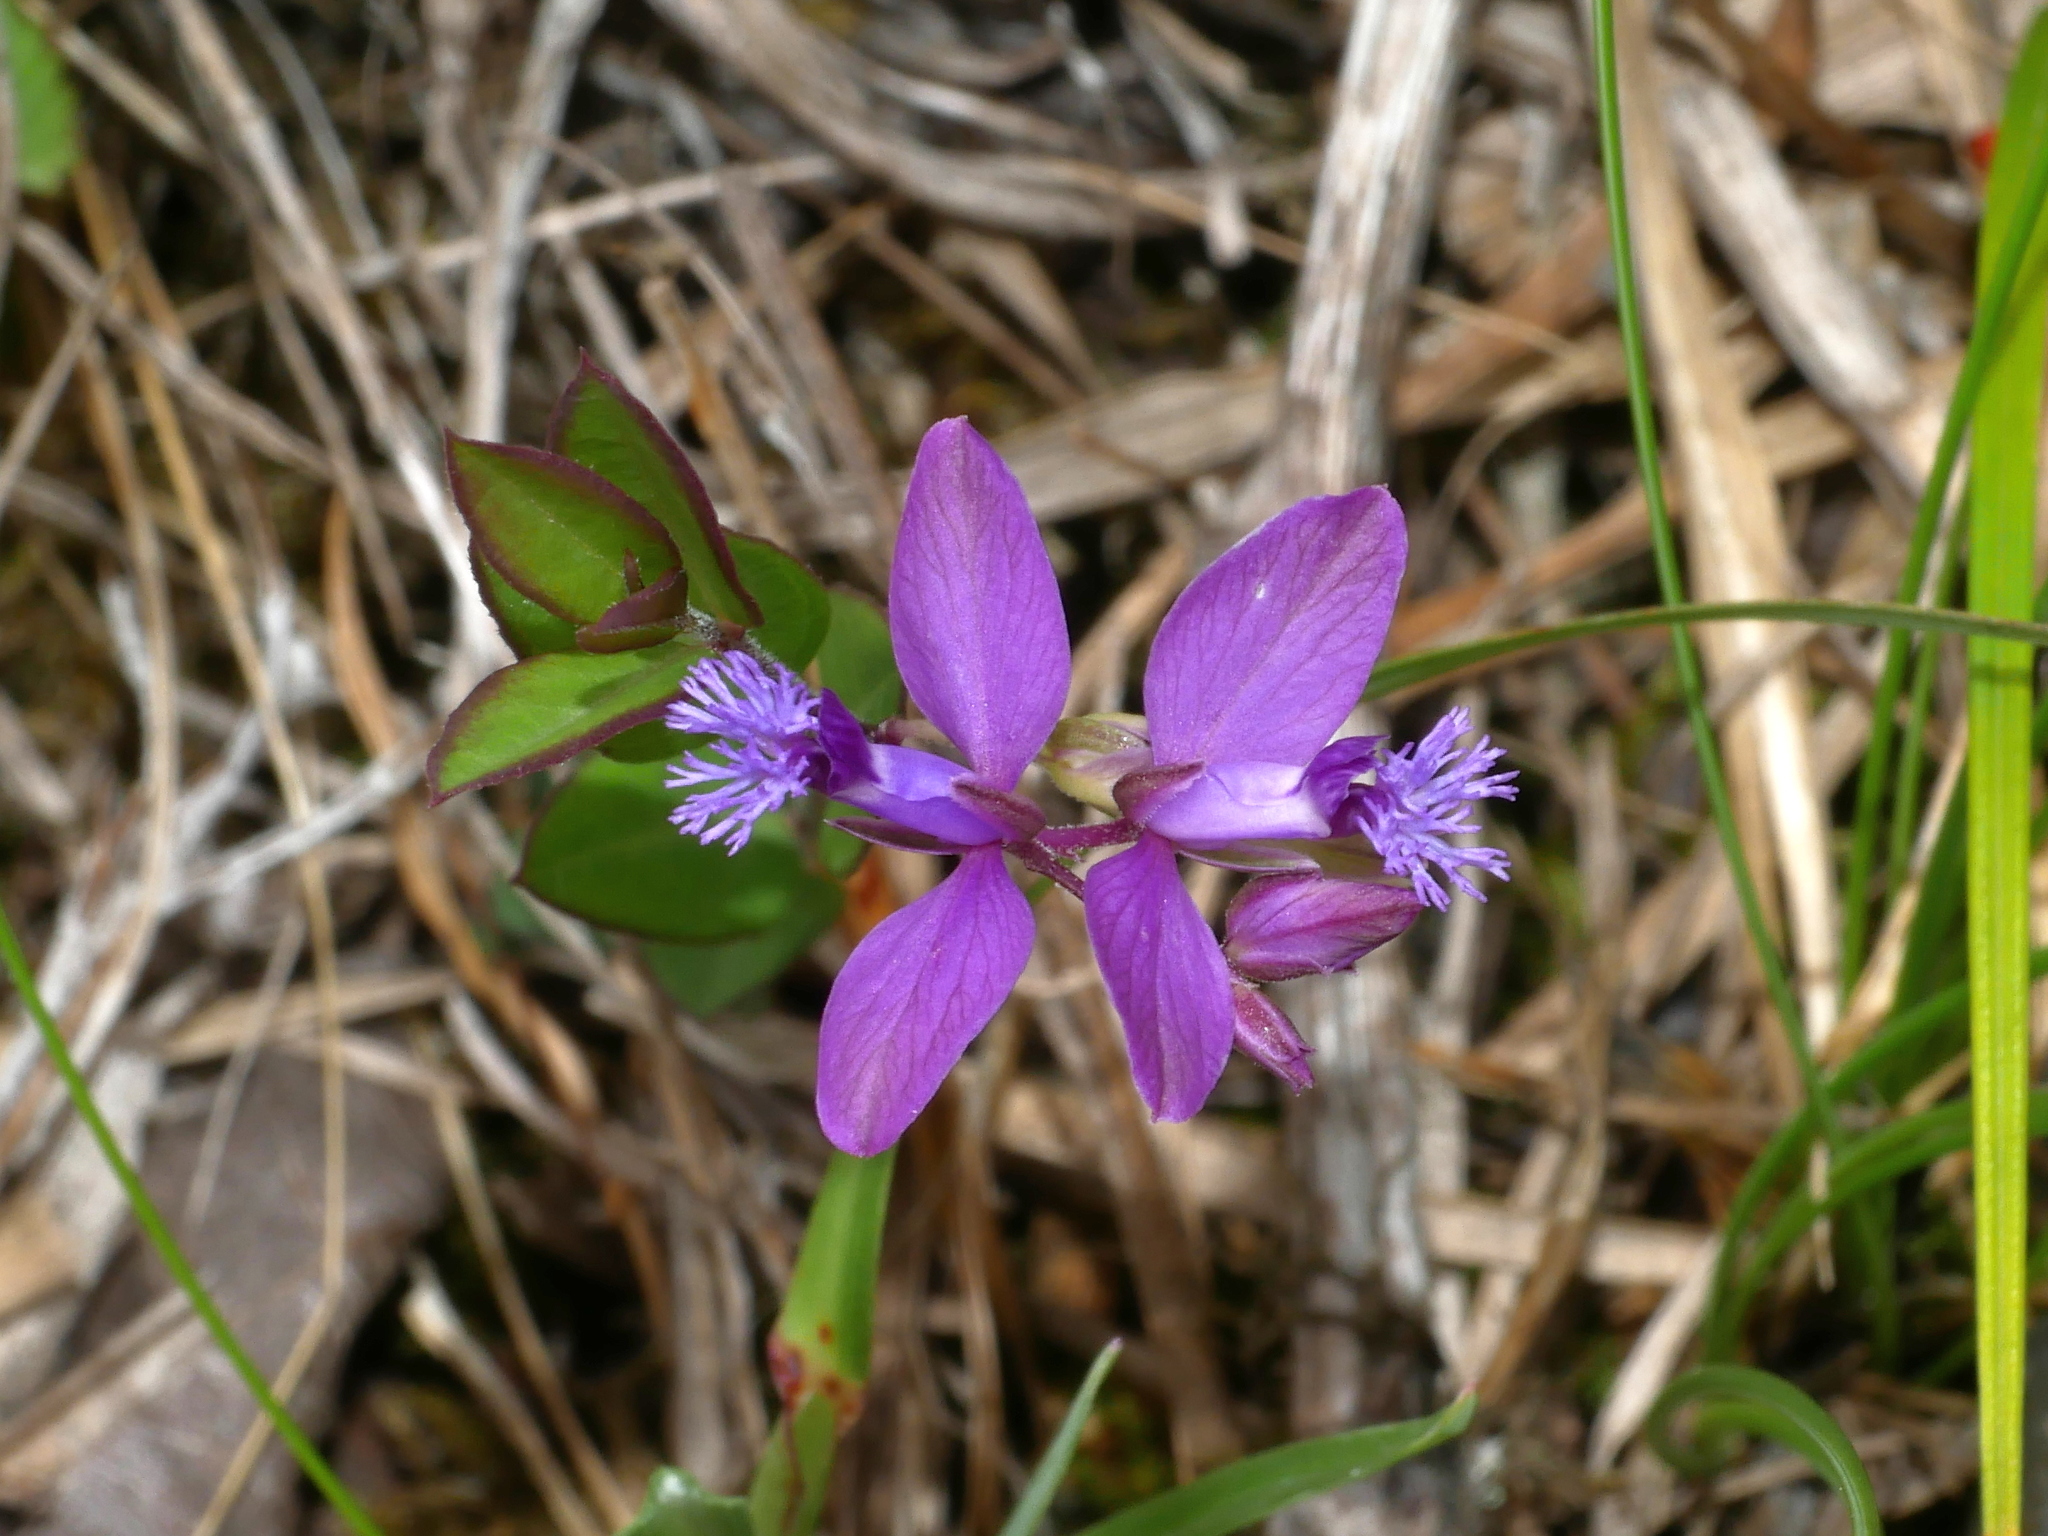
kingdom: Plantae
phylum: Tracheophyta
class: Magnoliopsida
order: Fabales
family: Polygalaceae
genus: Polygala
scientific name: Polygala japonica
